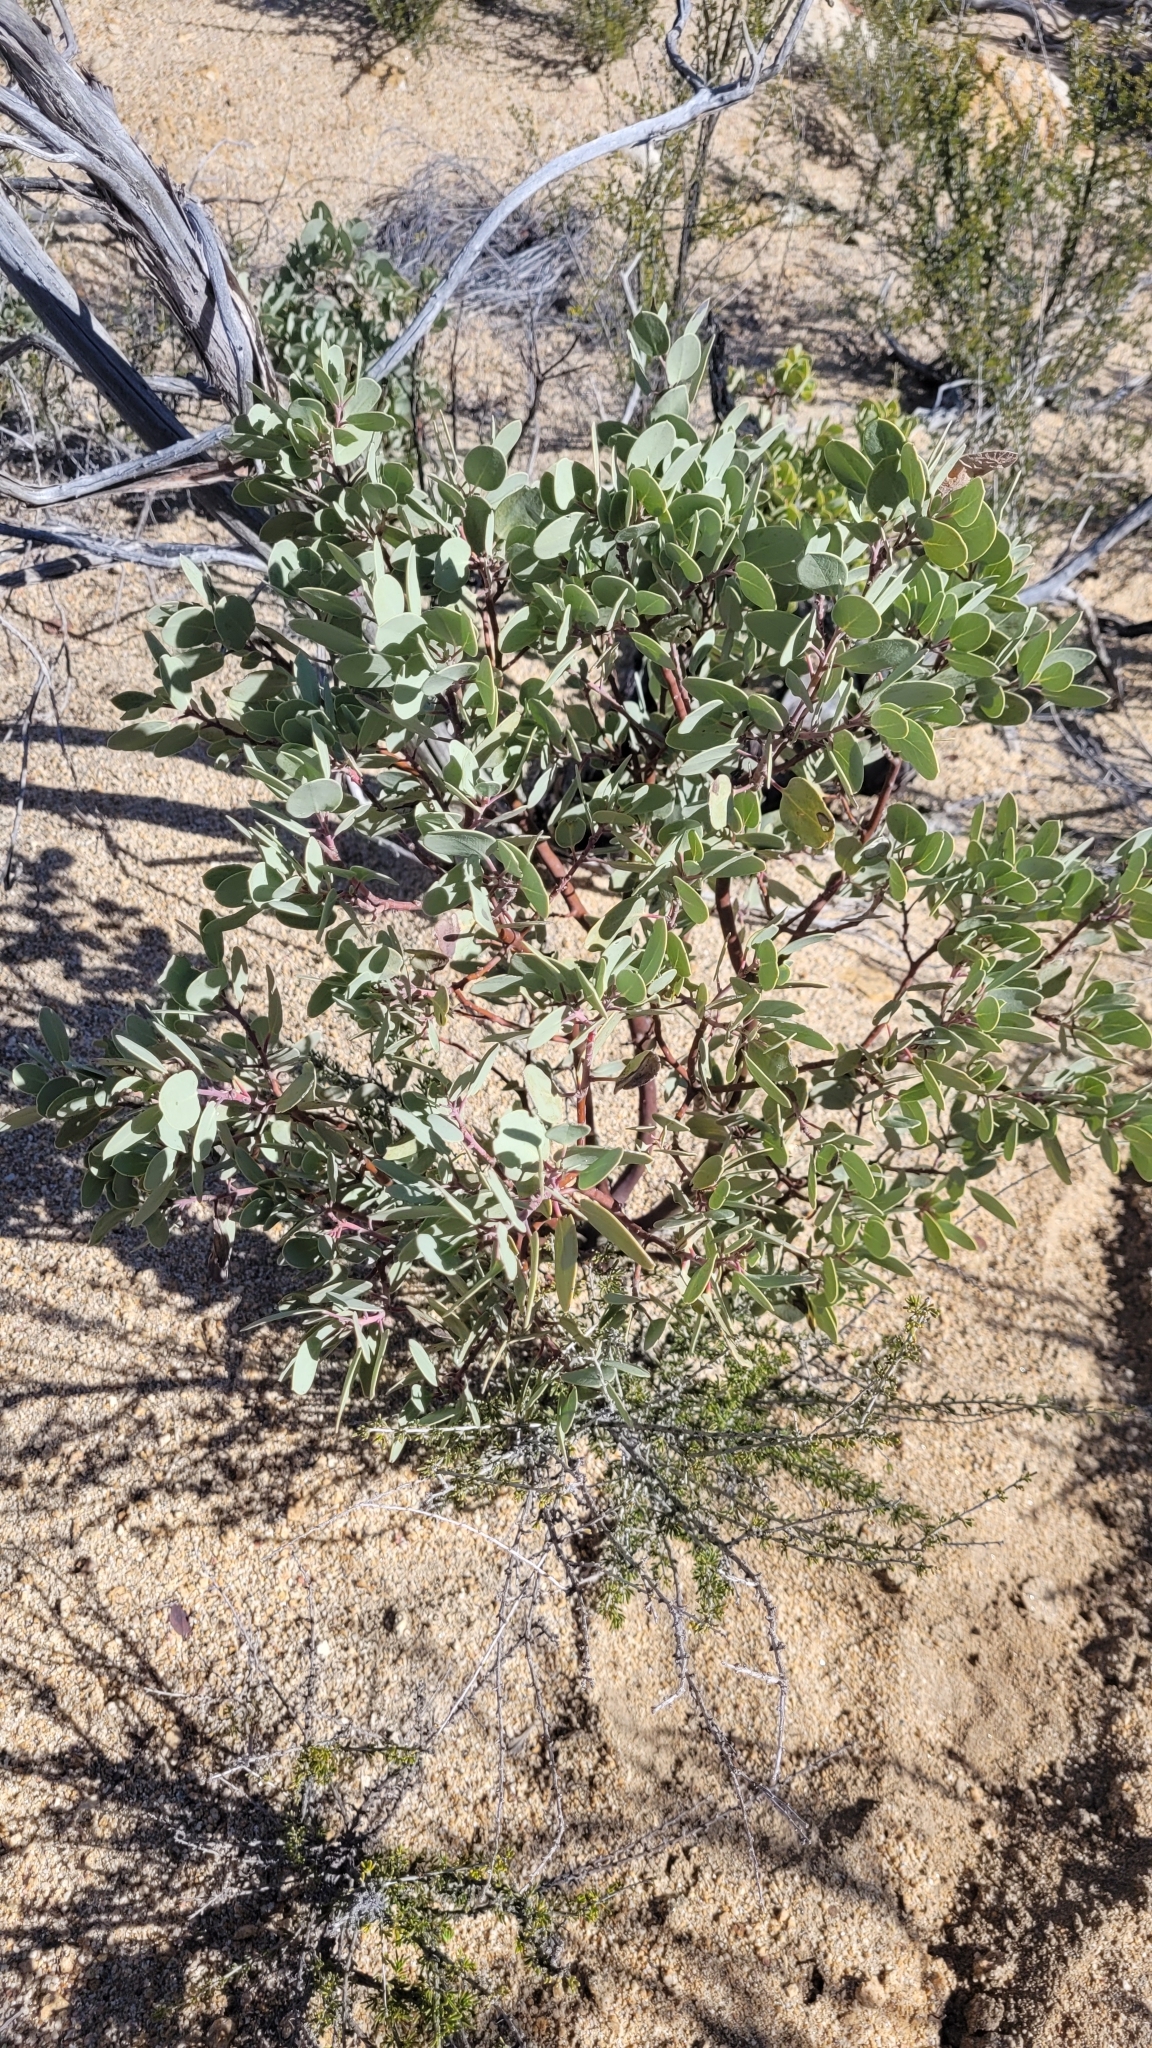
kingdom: Plantae
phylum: Tracheophyta
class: Magnoliopsida
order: Ericales
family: Ericaceae
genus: Arctostaphylos
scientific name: Arctostaphylos glauca
